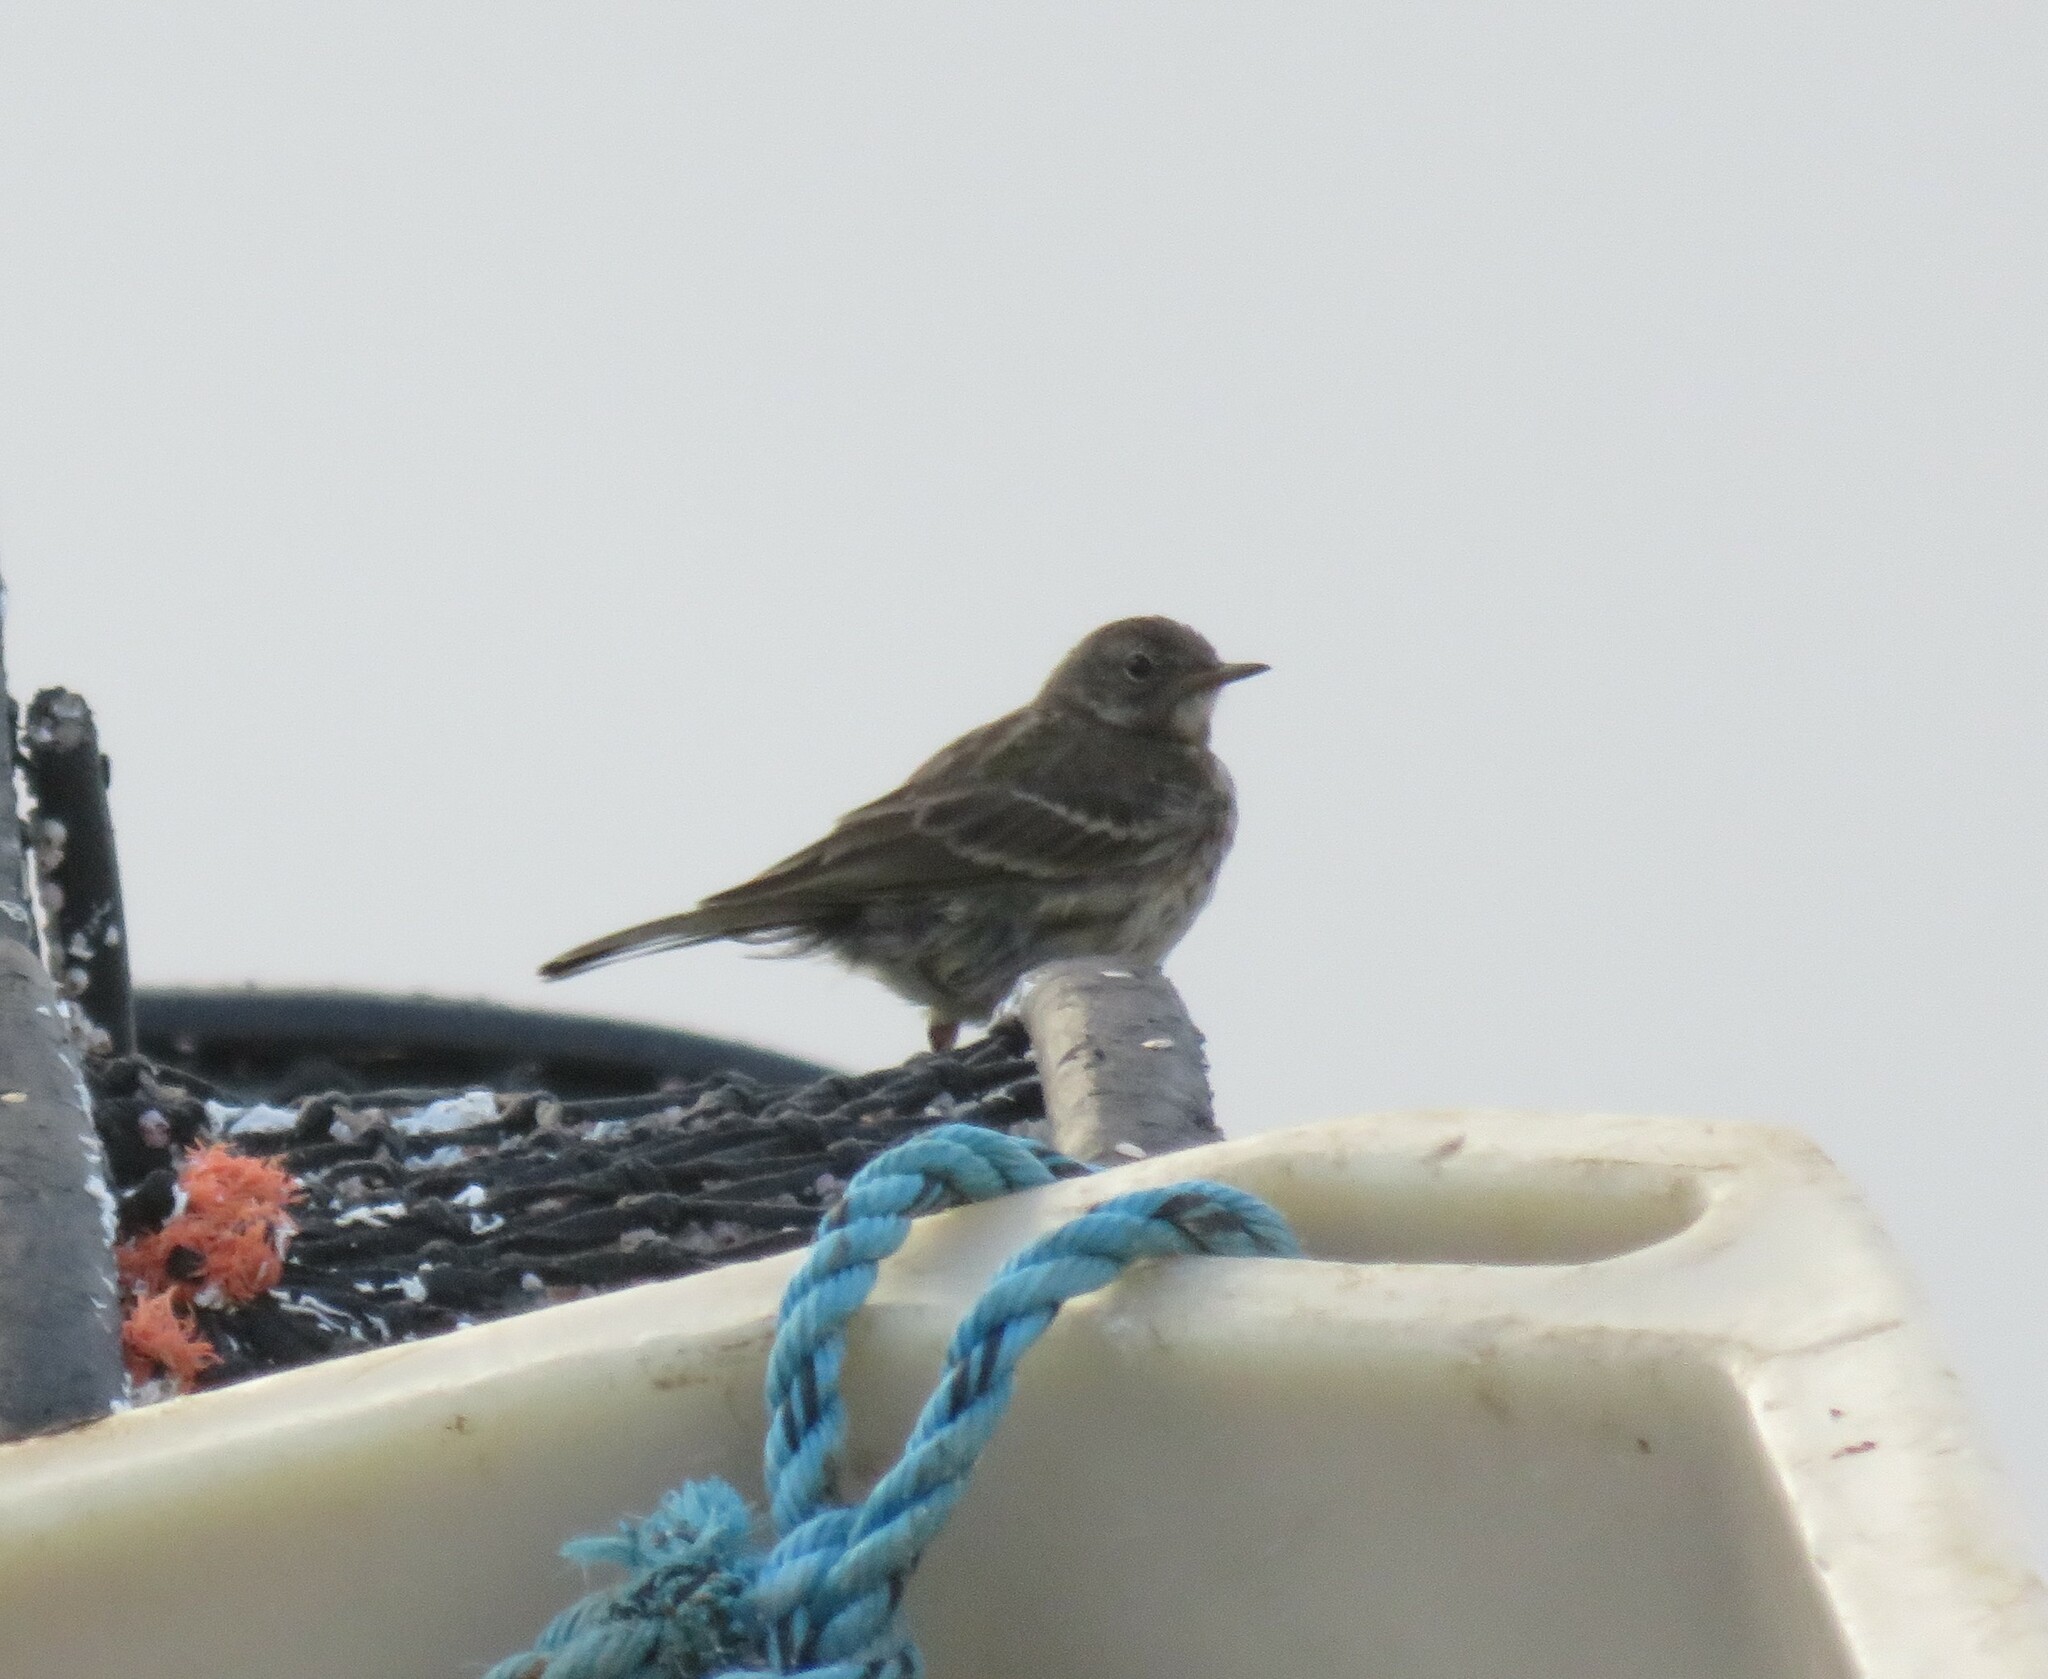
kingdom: Animalia
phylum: Chordata
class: Aves
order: Passeriformes
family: Motacillidae
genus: Anthus
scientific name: Anthus petrosus
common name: Eurasian rock pipit
